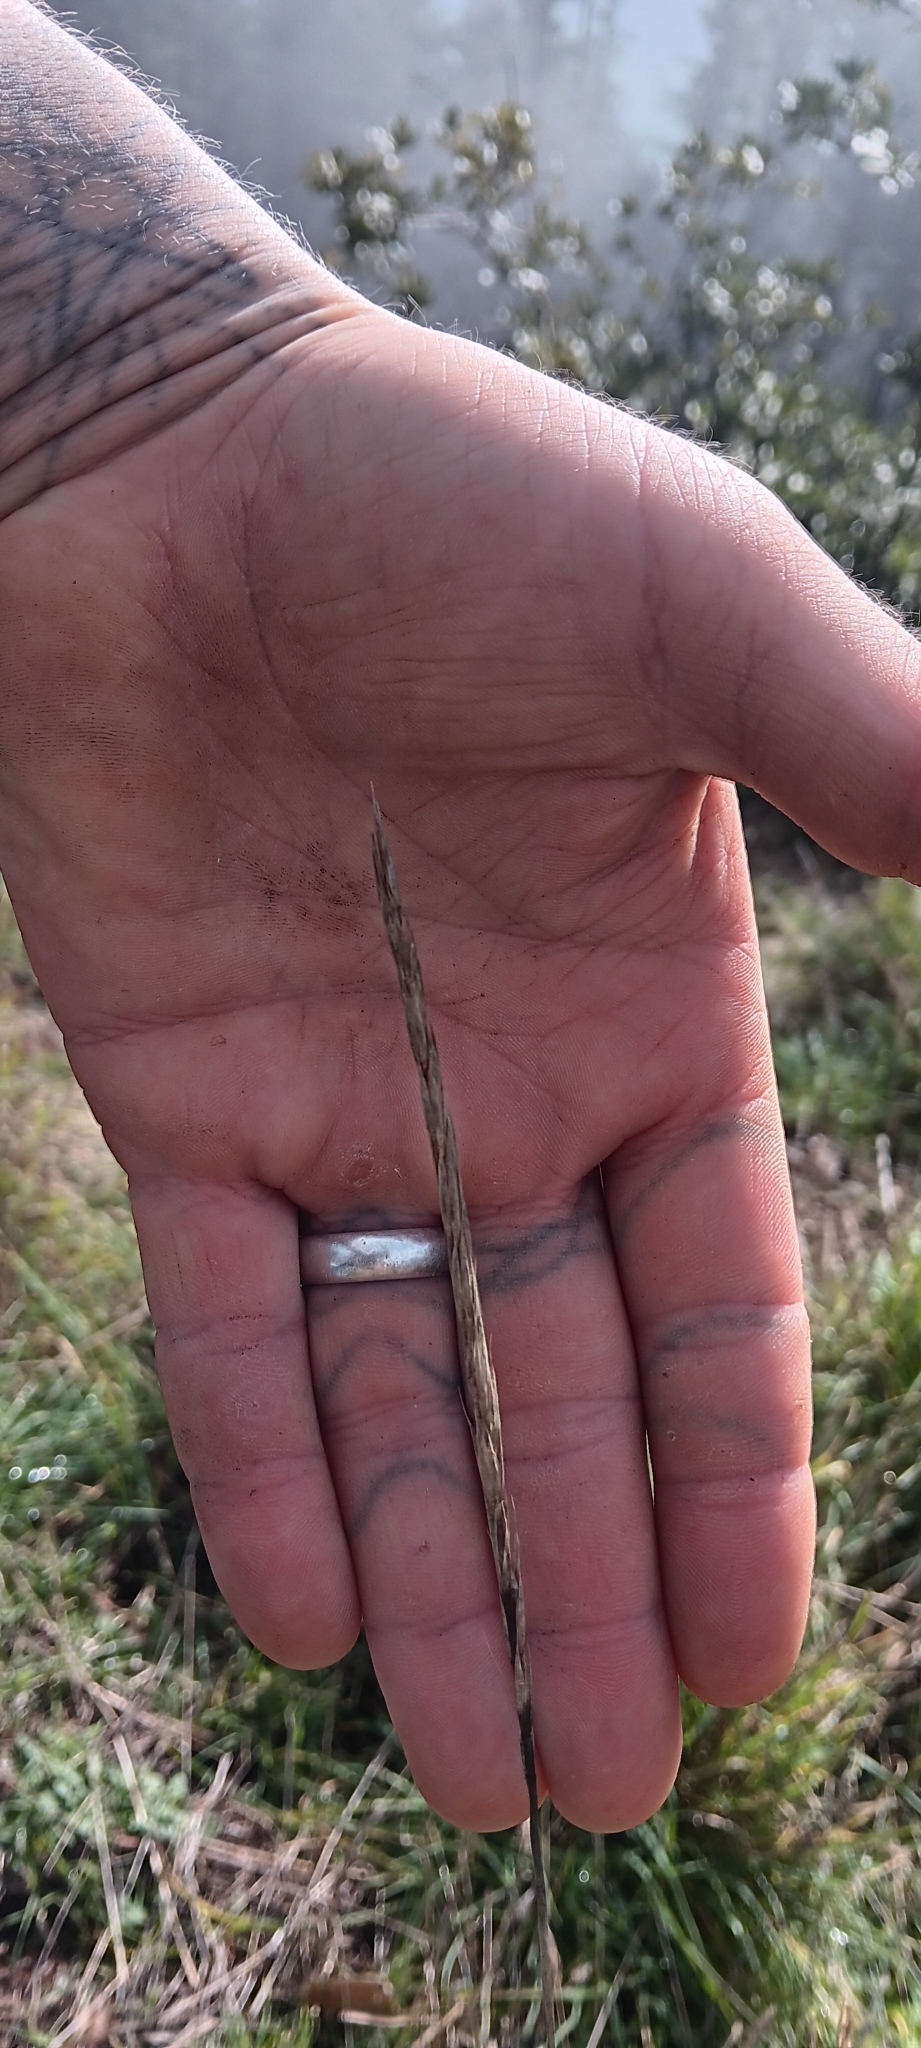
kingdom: Plantae
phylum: Tracheophyta
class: Liliopsida
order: Poales
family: Poaceae
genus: Elymus
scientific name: Elymus glaucus
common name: Blue wild rye
